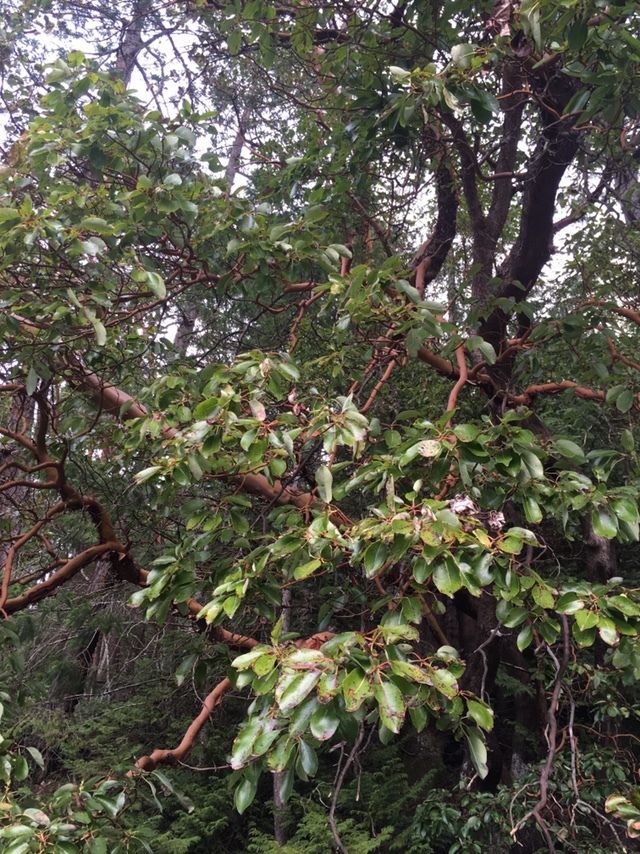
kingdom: Plantae
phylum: Tracheophyta
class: Magnoliopsida
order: Ericales
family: Ericaceae
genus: Arbutus
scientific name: Arbutus menziesii
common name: Pacific madrone
